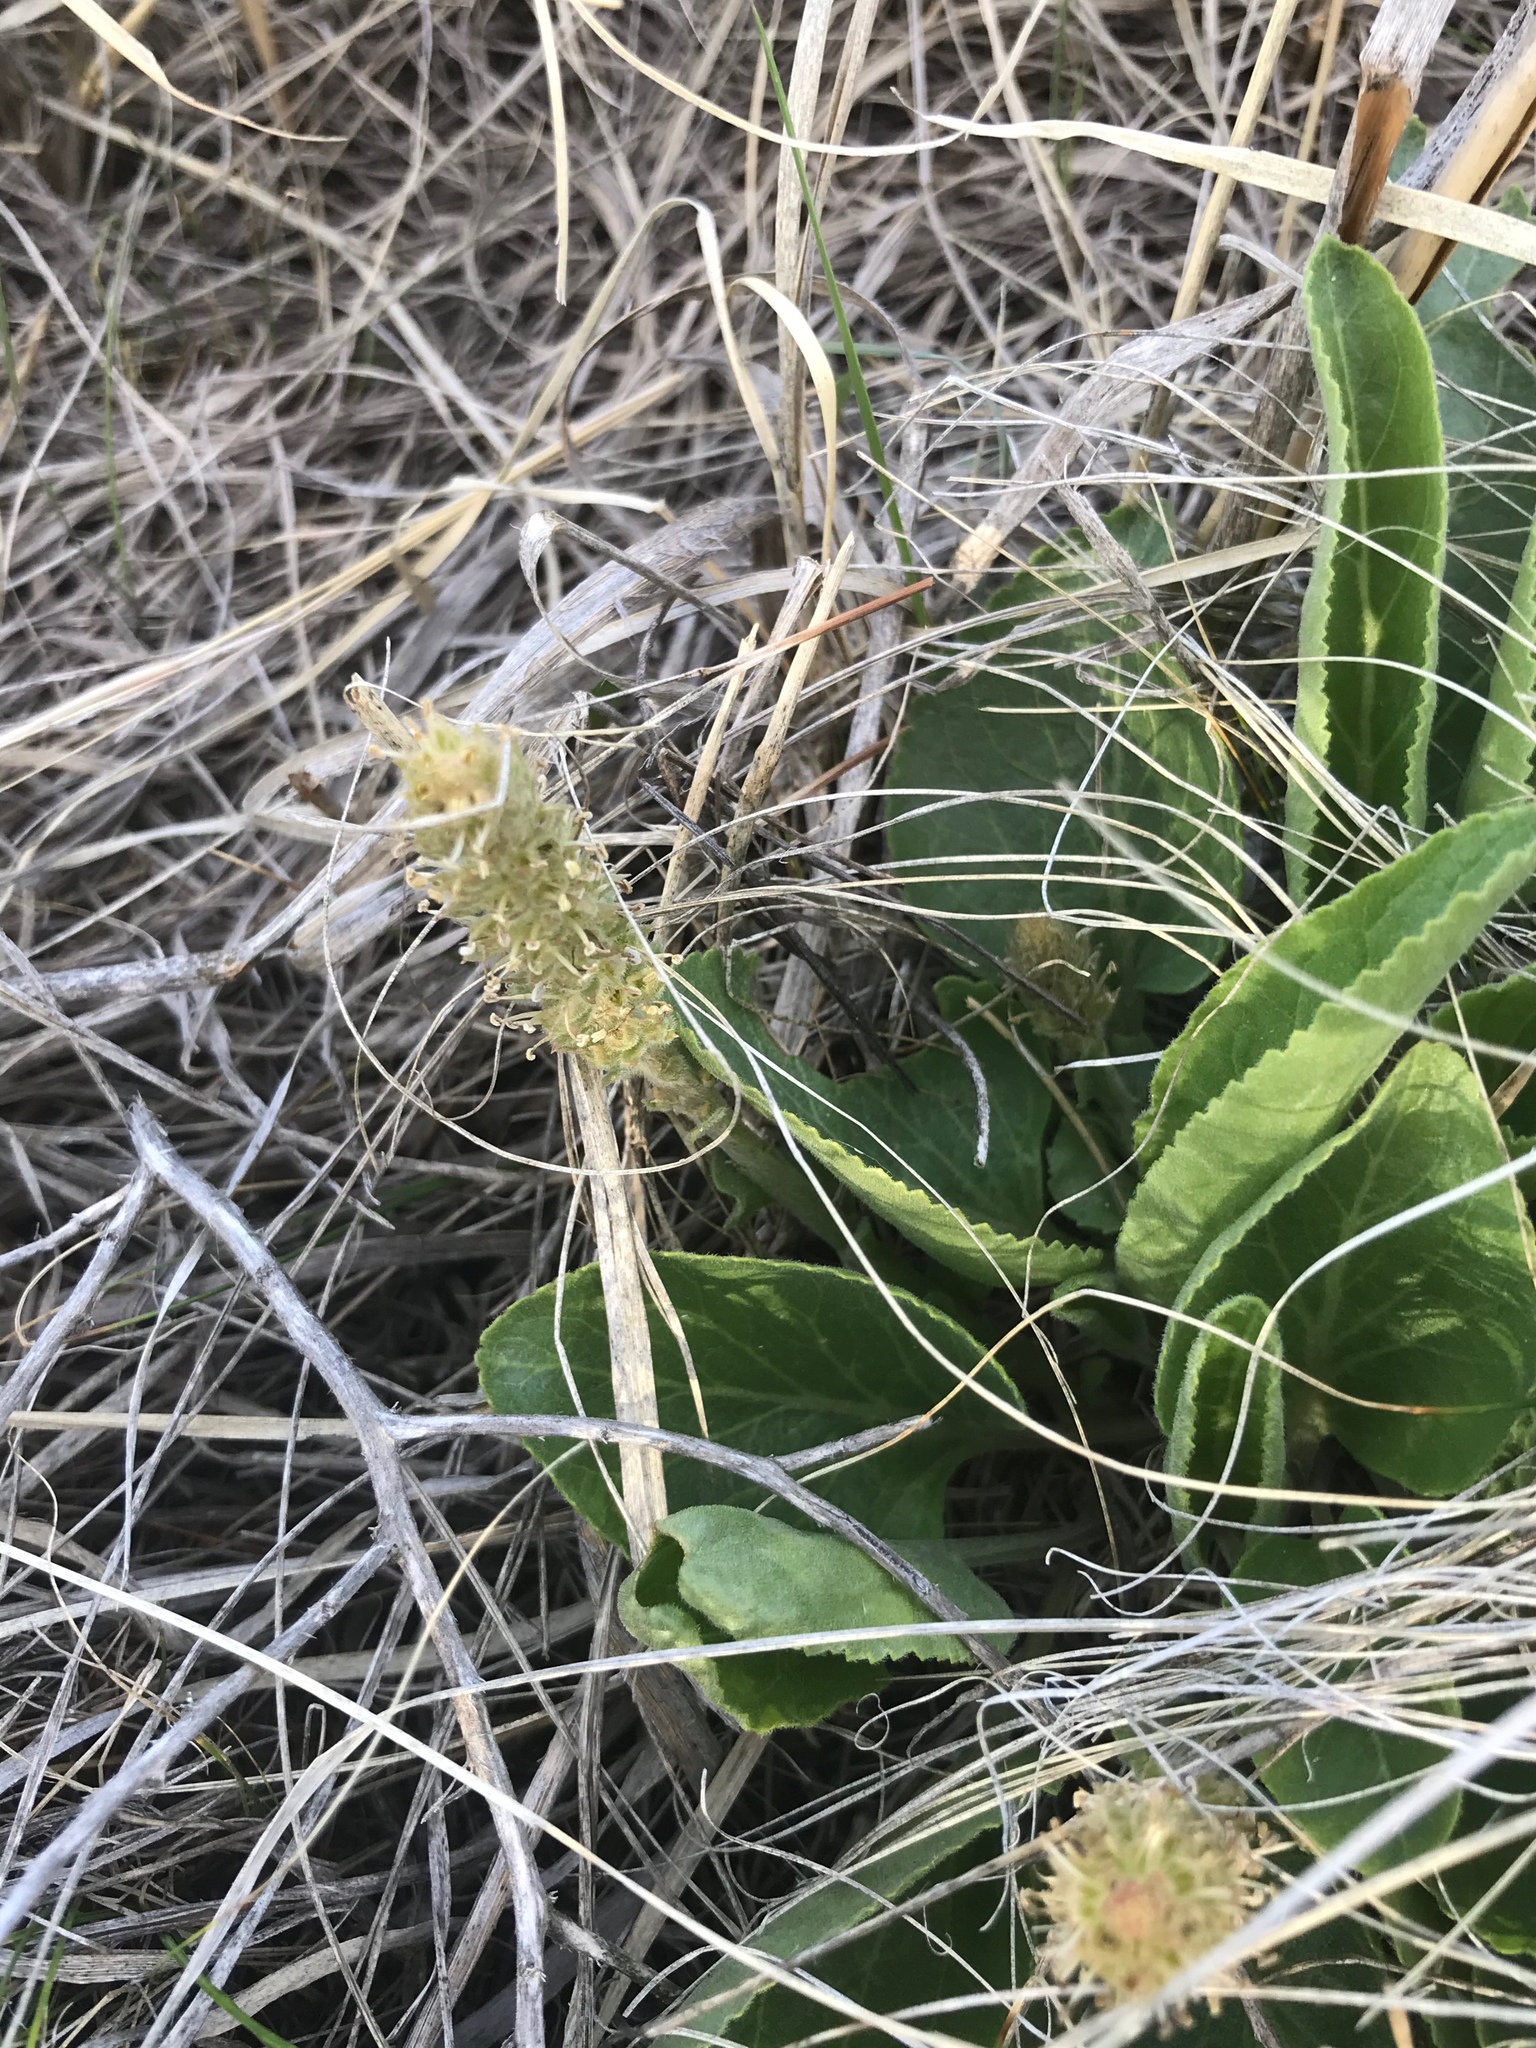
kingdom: Plantae
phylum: Tracheophyta
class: Magnoliopsida
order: Lamiales
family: Plantaginaceae
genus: Synthyris
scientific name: Synthyris wyomingensis
